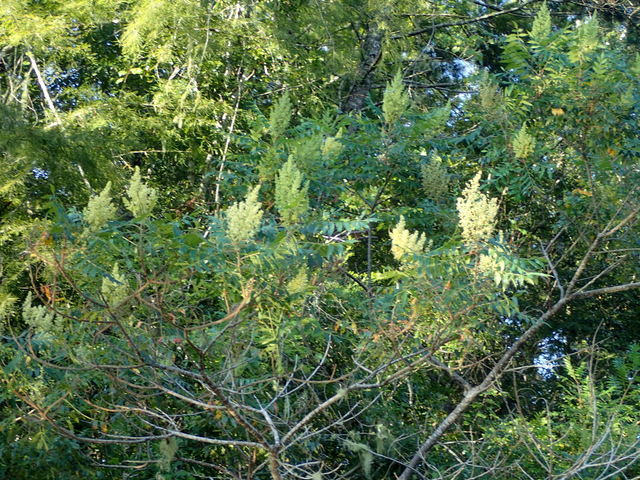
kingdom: Plantae
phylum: Tracheophyta
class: Magnoliopsida
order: Sapindales
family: Anacardiaceae
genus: Rhus
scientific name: Rhus copallina
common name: Shining sumac
